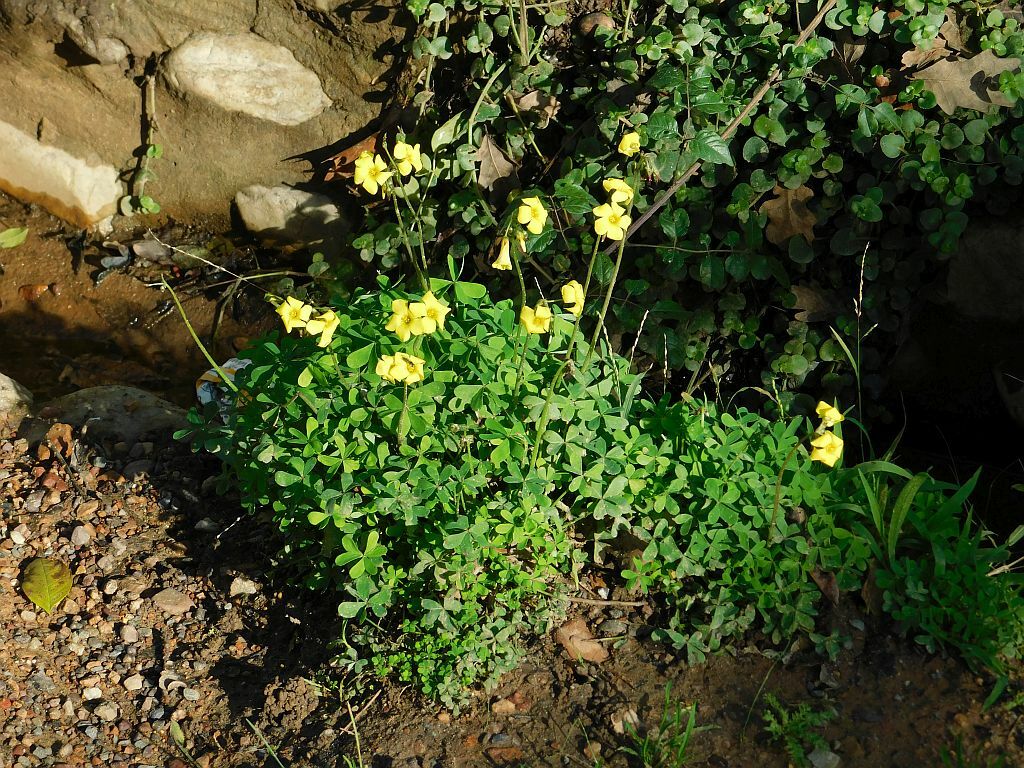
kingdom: Plantae
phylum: Tracheophyta
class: Magnoliopsida
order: Oxalidales
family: Oxalidaceae
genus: Oxalis
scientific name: Oxalis pes-caprae
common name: Bermuda-buttercup
